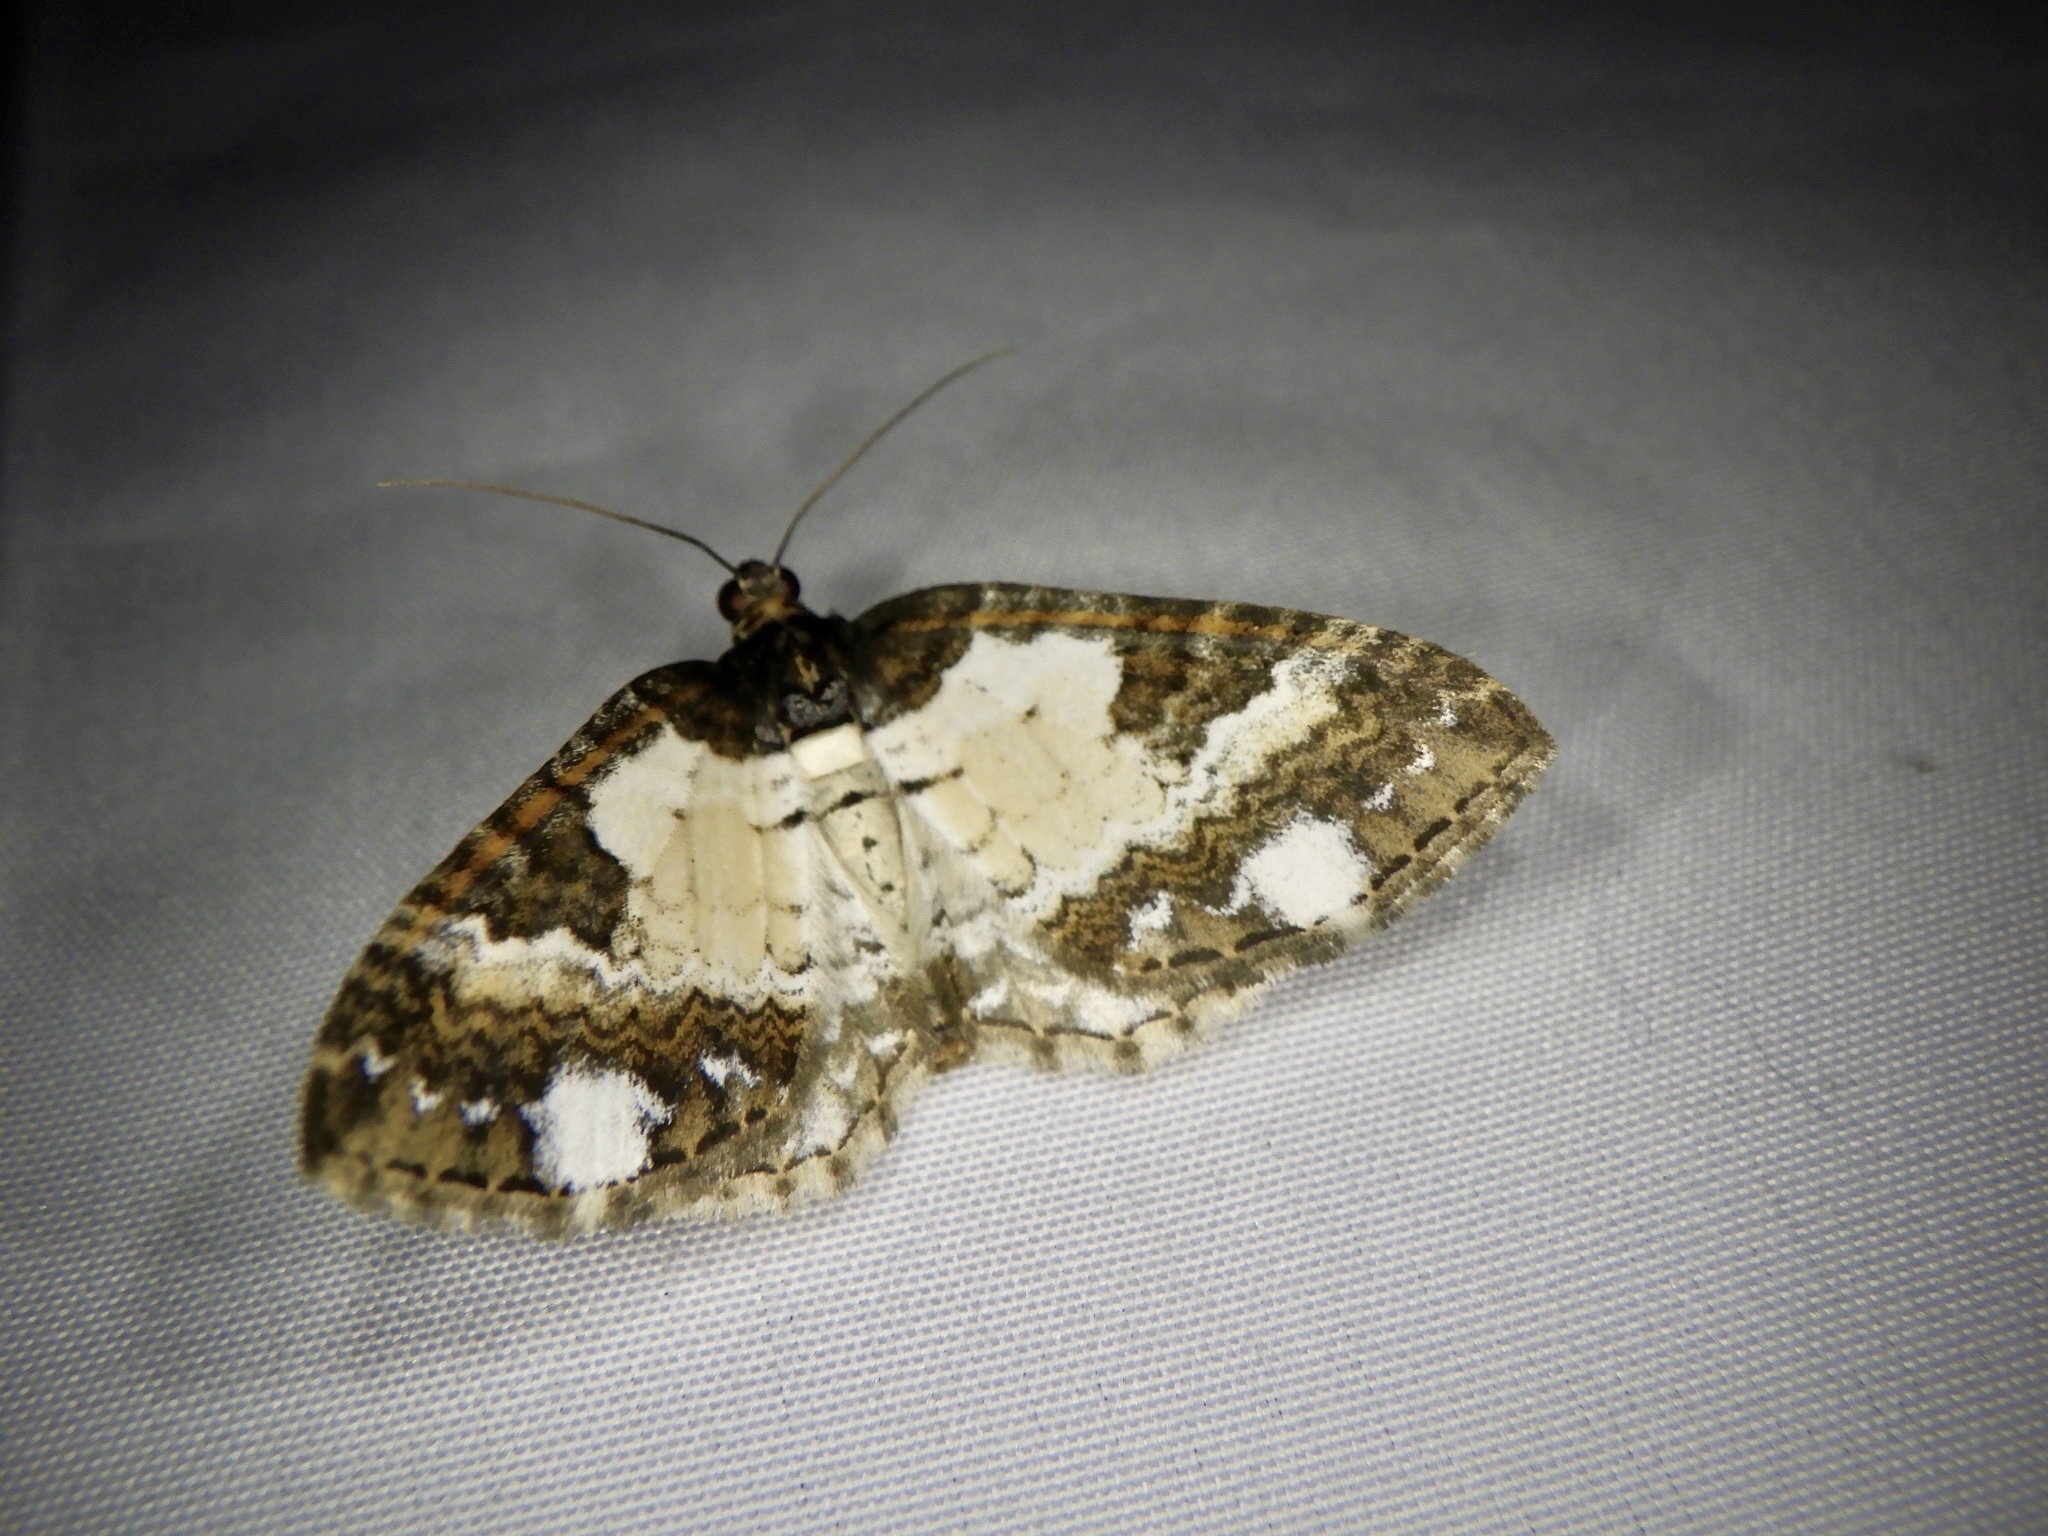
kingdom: Animalia
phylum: Arthropoda
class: Insecta
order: Lepidoptera
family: Geometridae
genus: Melanthia
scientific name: Melanthia procellata
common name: Pretty chalk carpet
